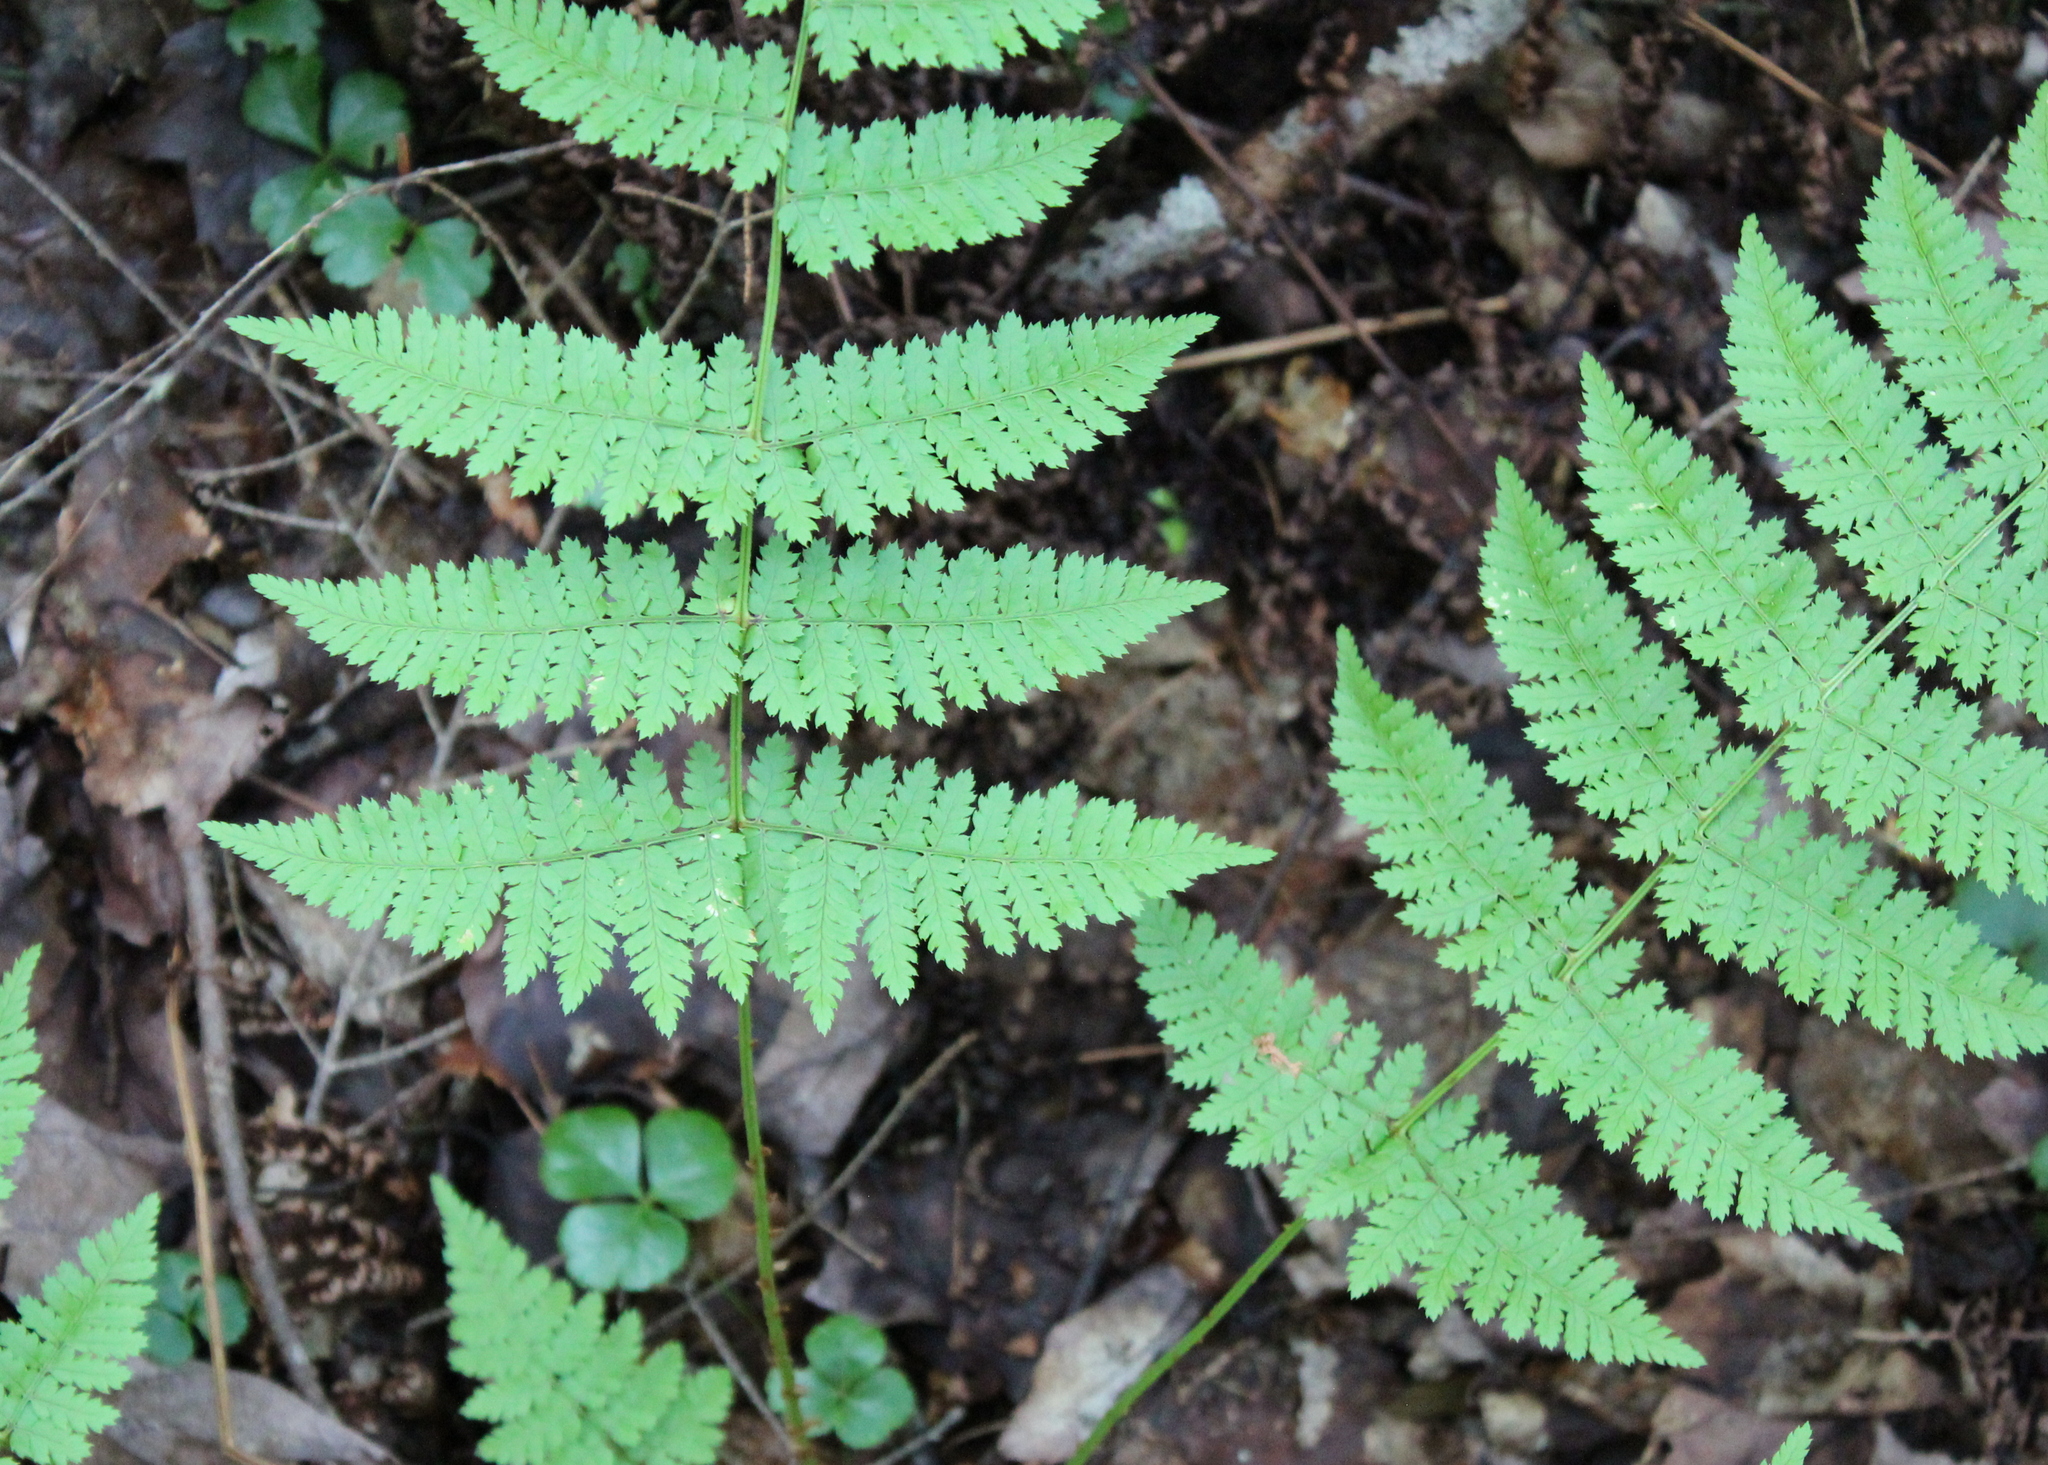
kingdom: Plantae
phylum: Tracheophyta
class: Polypodiopsida
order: Polypodiales
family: Dryopteridaceae
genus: Dryopteris
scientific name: Dryopteris intermedia
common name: Evergreen wood fern
